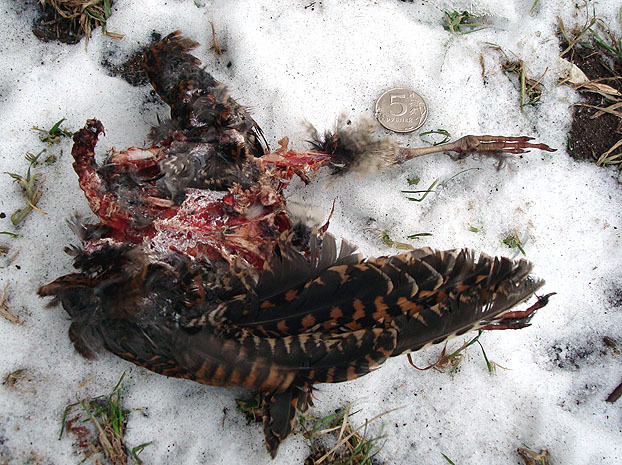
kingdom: Animalia
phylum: Chordata
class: Aves
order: Charadriiformes
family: Scolopacidae
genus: Scolopax
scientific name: Scolopax rusticola
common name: Eurasian woodcock
